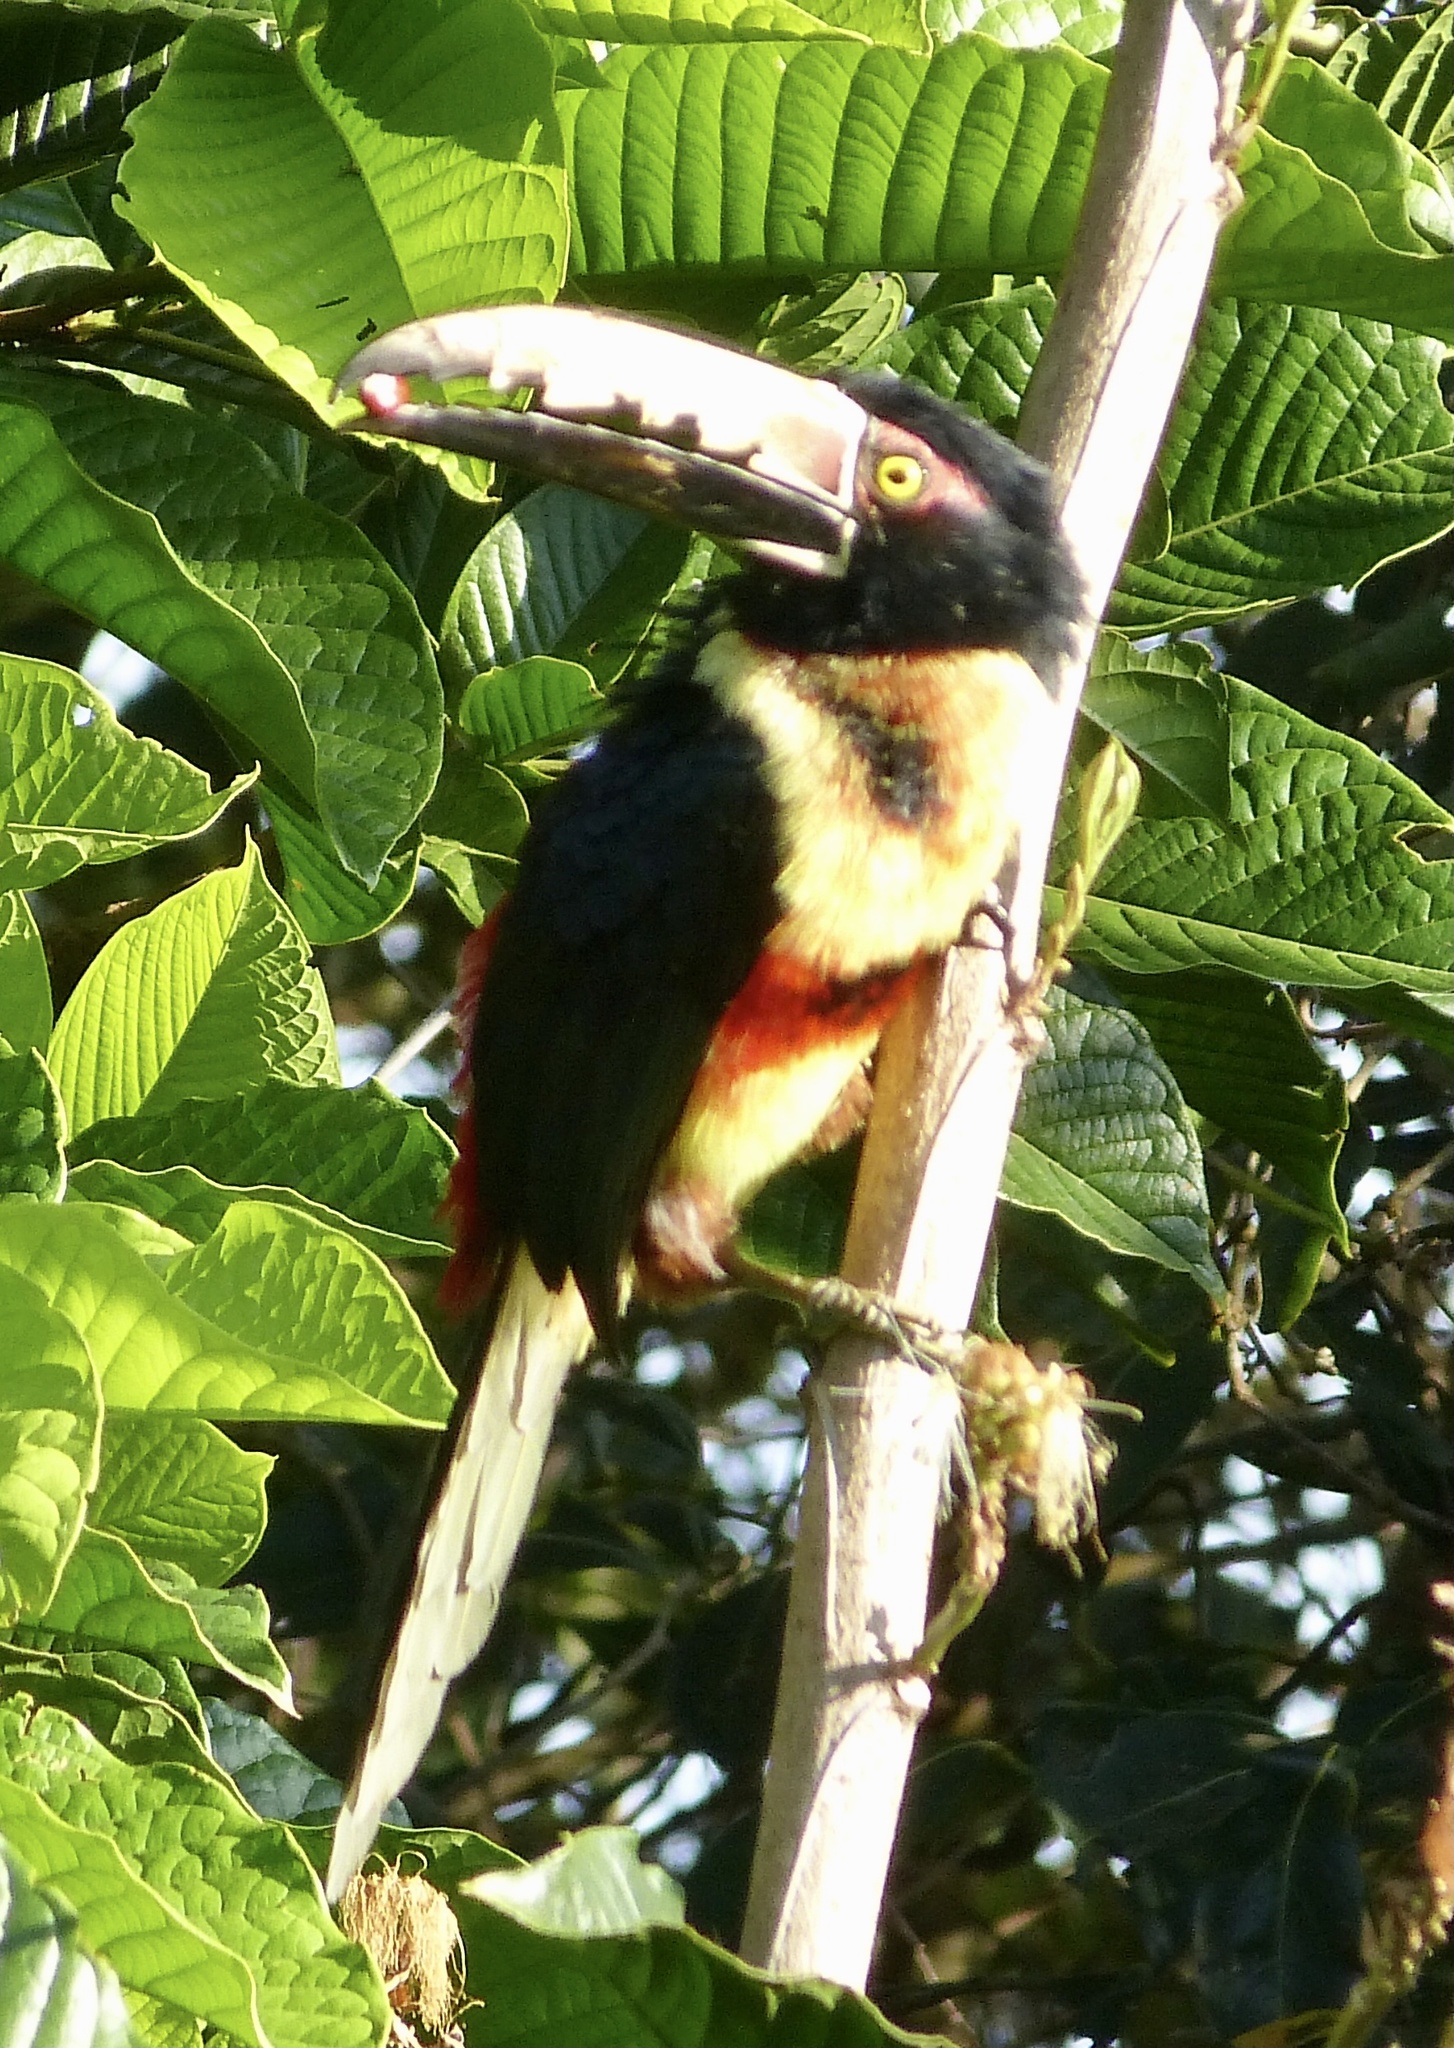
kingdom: Animalia
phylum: Chordata
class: Aves
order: Piciformes
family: Ramphastidae
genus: Pteroglossus
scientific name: Pteroglossus torquatus
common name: Collared aracari
